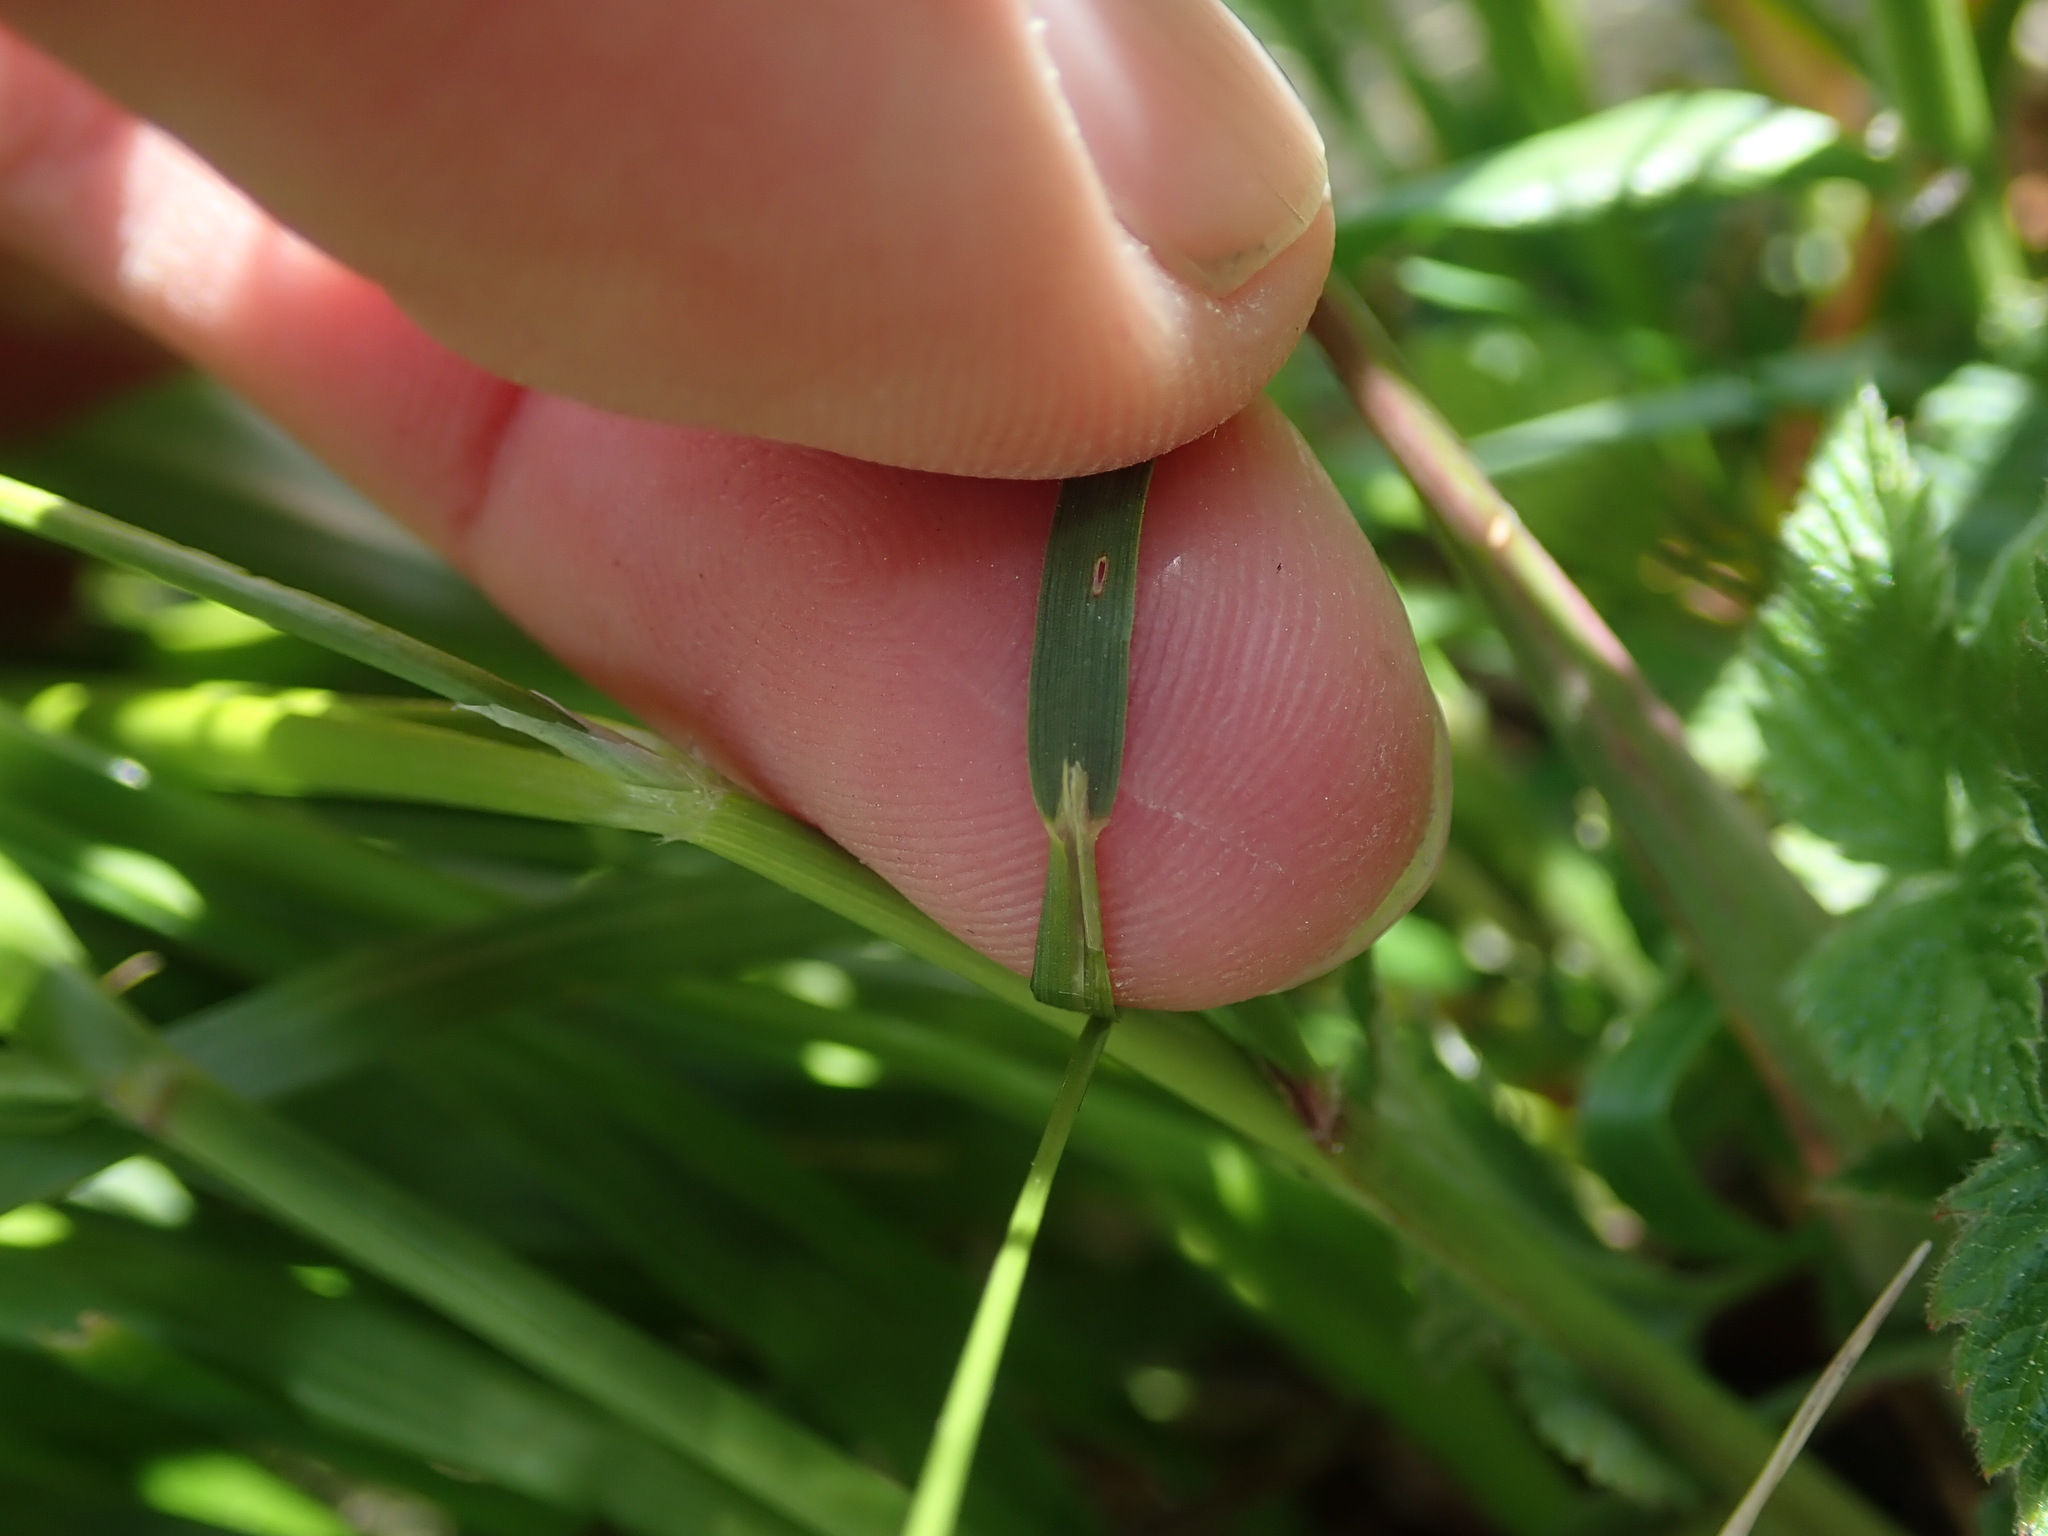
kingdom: Plantae
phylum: Tracheophyta
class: Liliopsida
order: Poales
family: Poaceae
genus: Anthoxanthum
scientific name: Anthoxanthum odoratum
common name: Sweet vernalgrass
